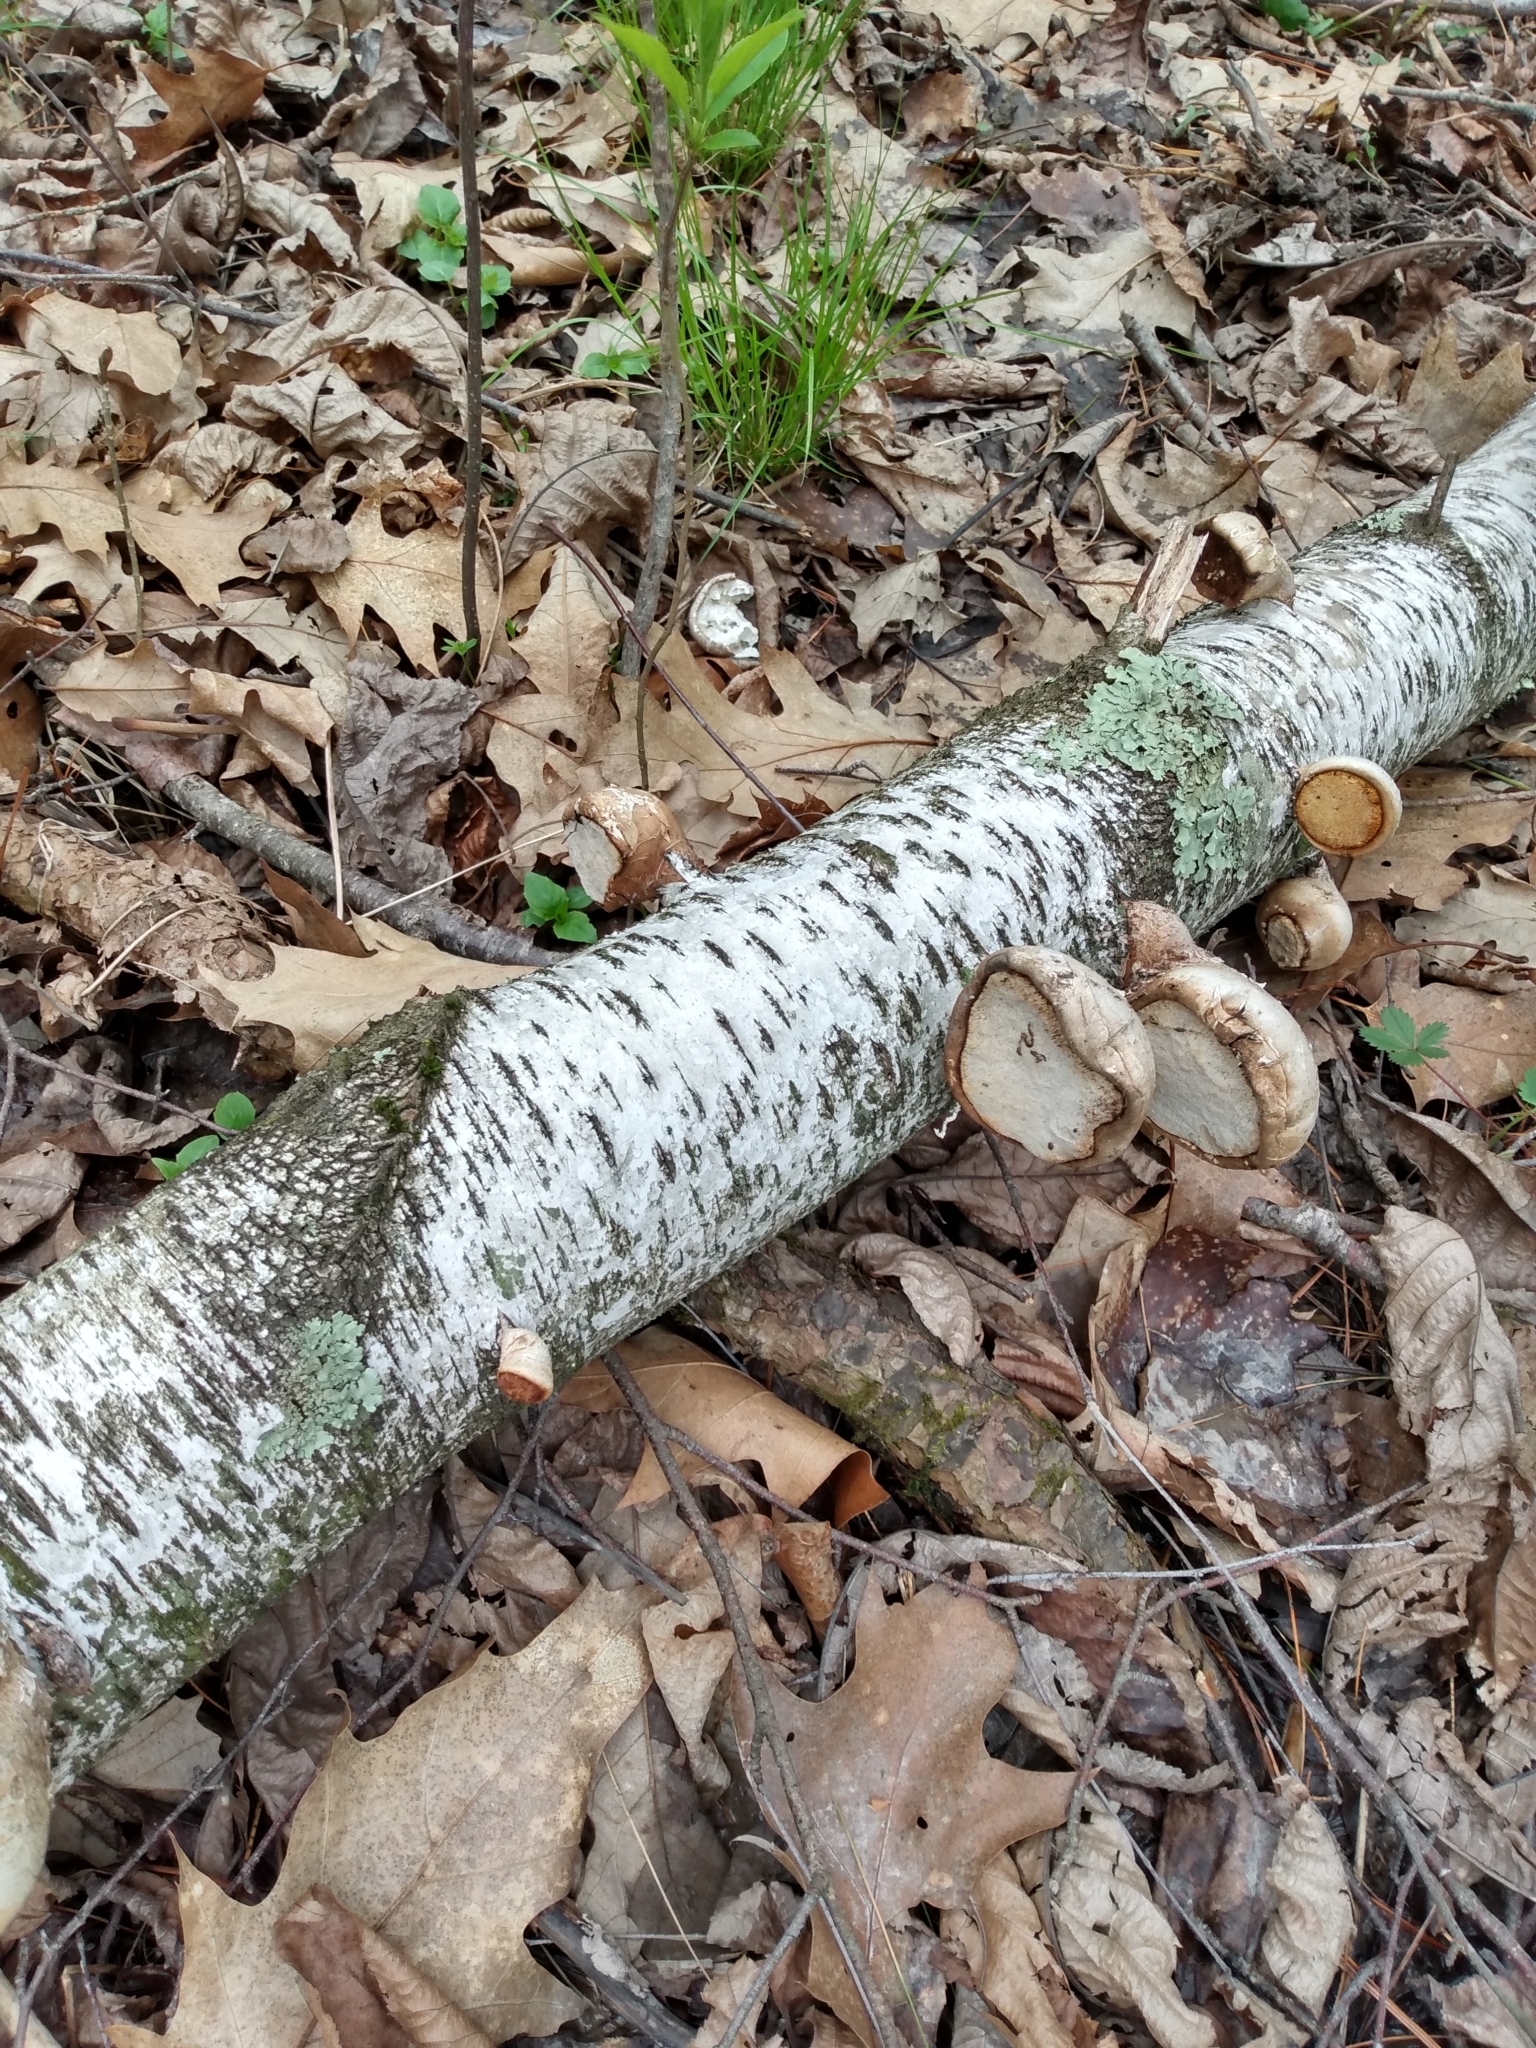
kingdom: Fungi
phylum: Basidiomycota
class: Agaricomycetes
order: Polyporales
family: Fomitopsidaceae
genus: Fomitopsis
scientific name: Fomitopsis betulina
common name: Birch polypore
